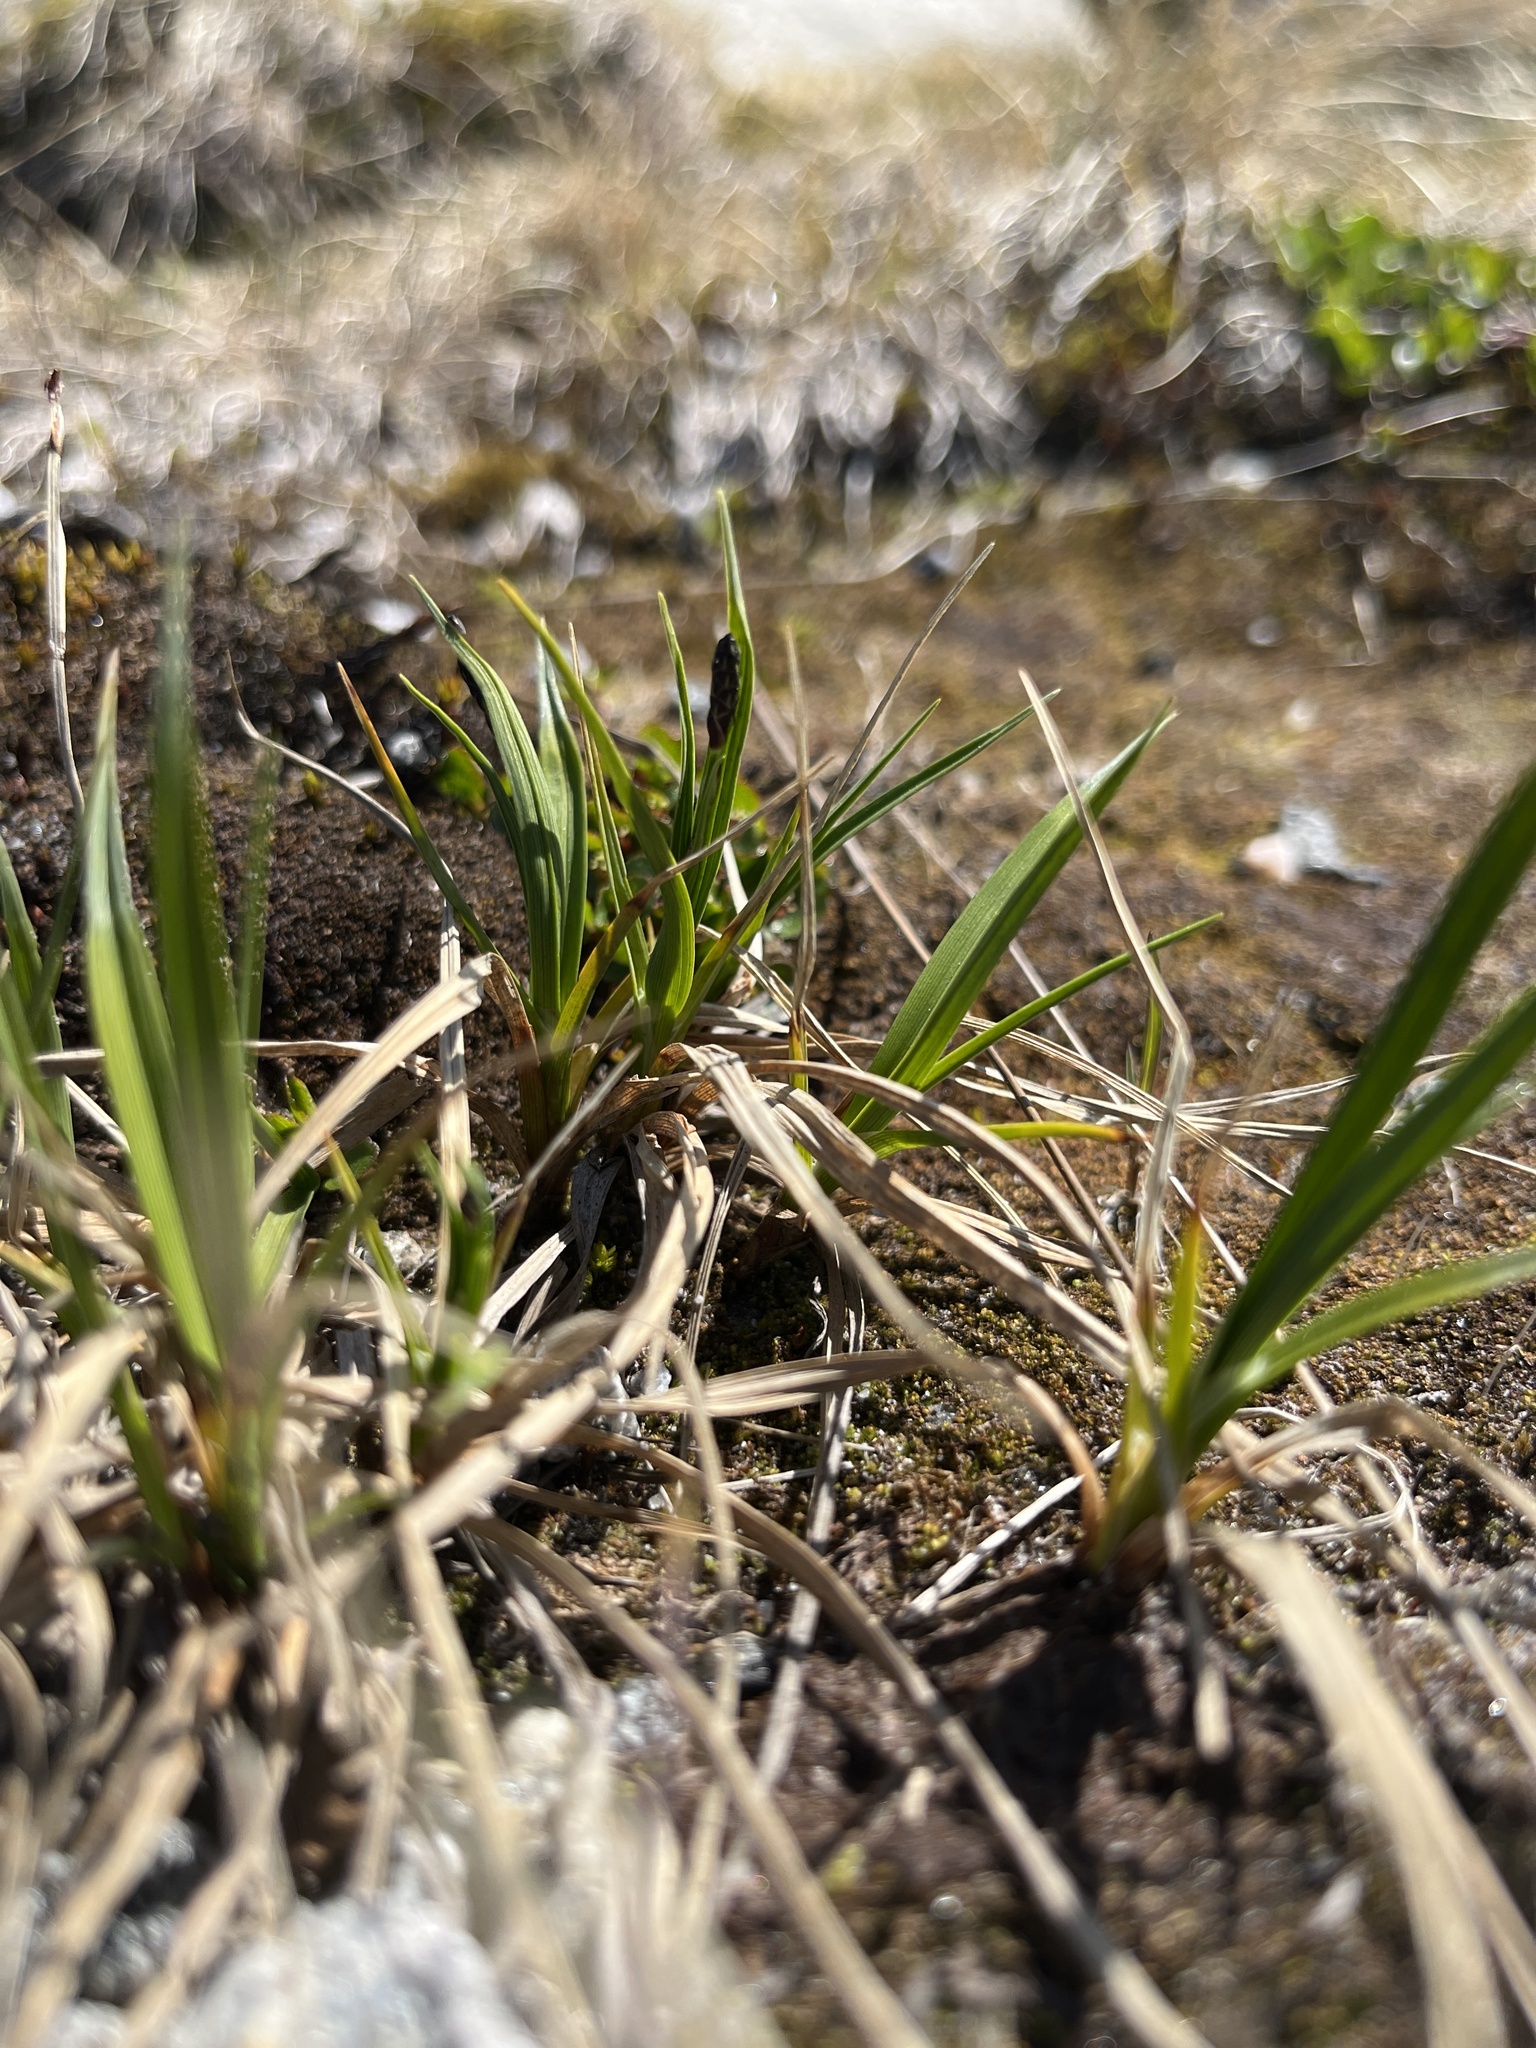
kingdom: Plantae
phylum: Tracheophyta
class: Liliopsida
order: Poales
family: Cyperaceae
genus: Carex
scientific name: Carex bigelowii
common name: Stiff sedge
